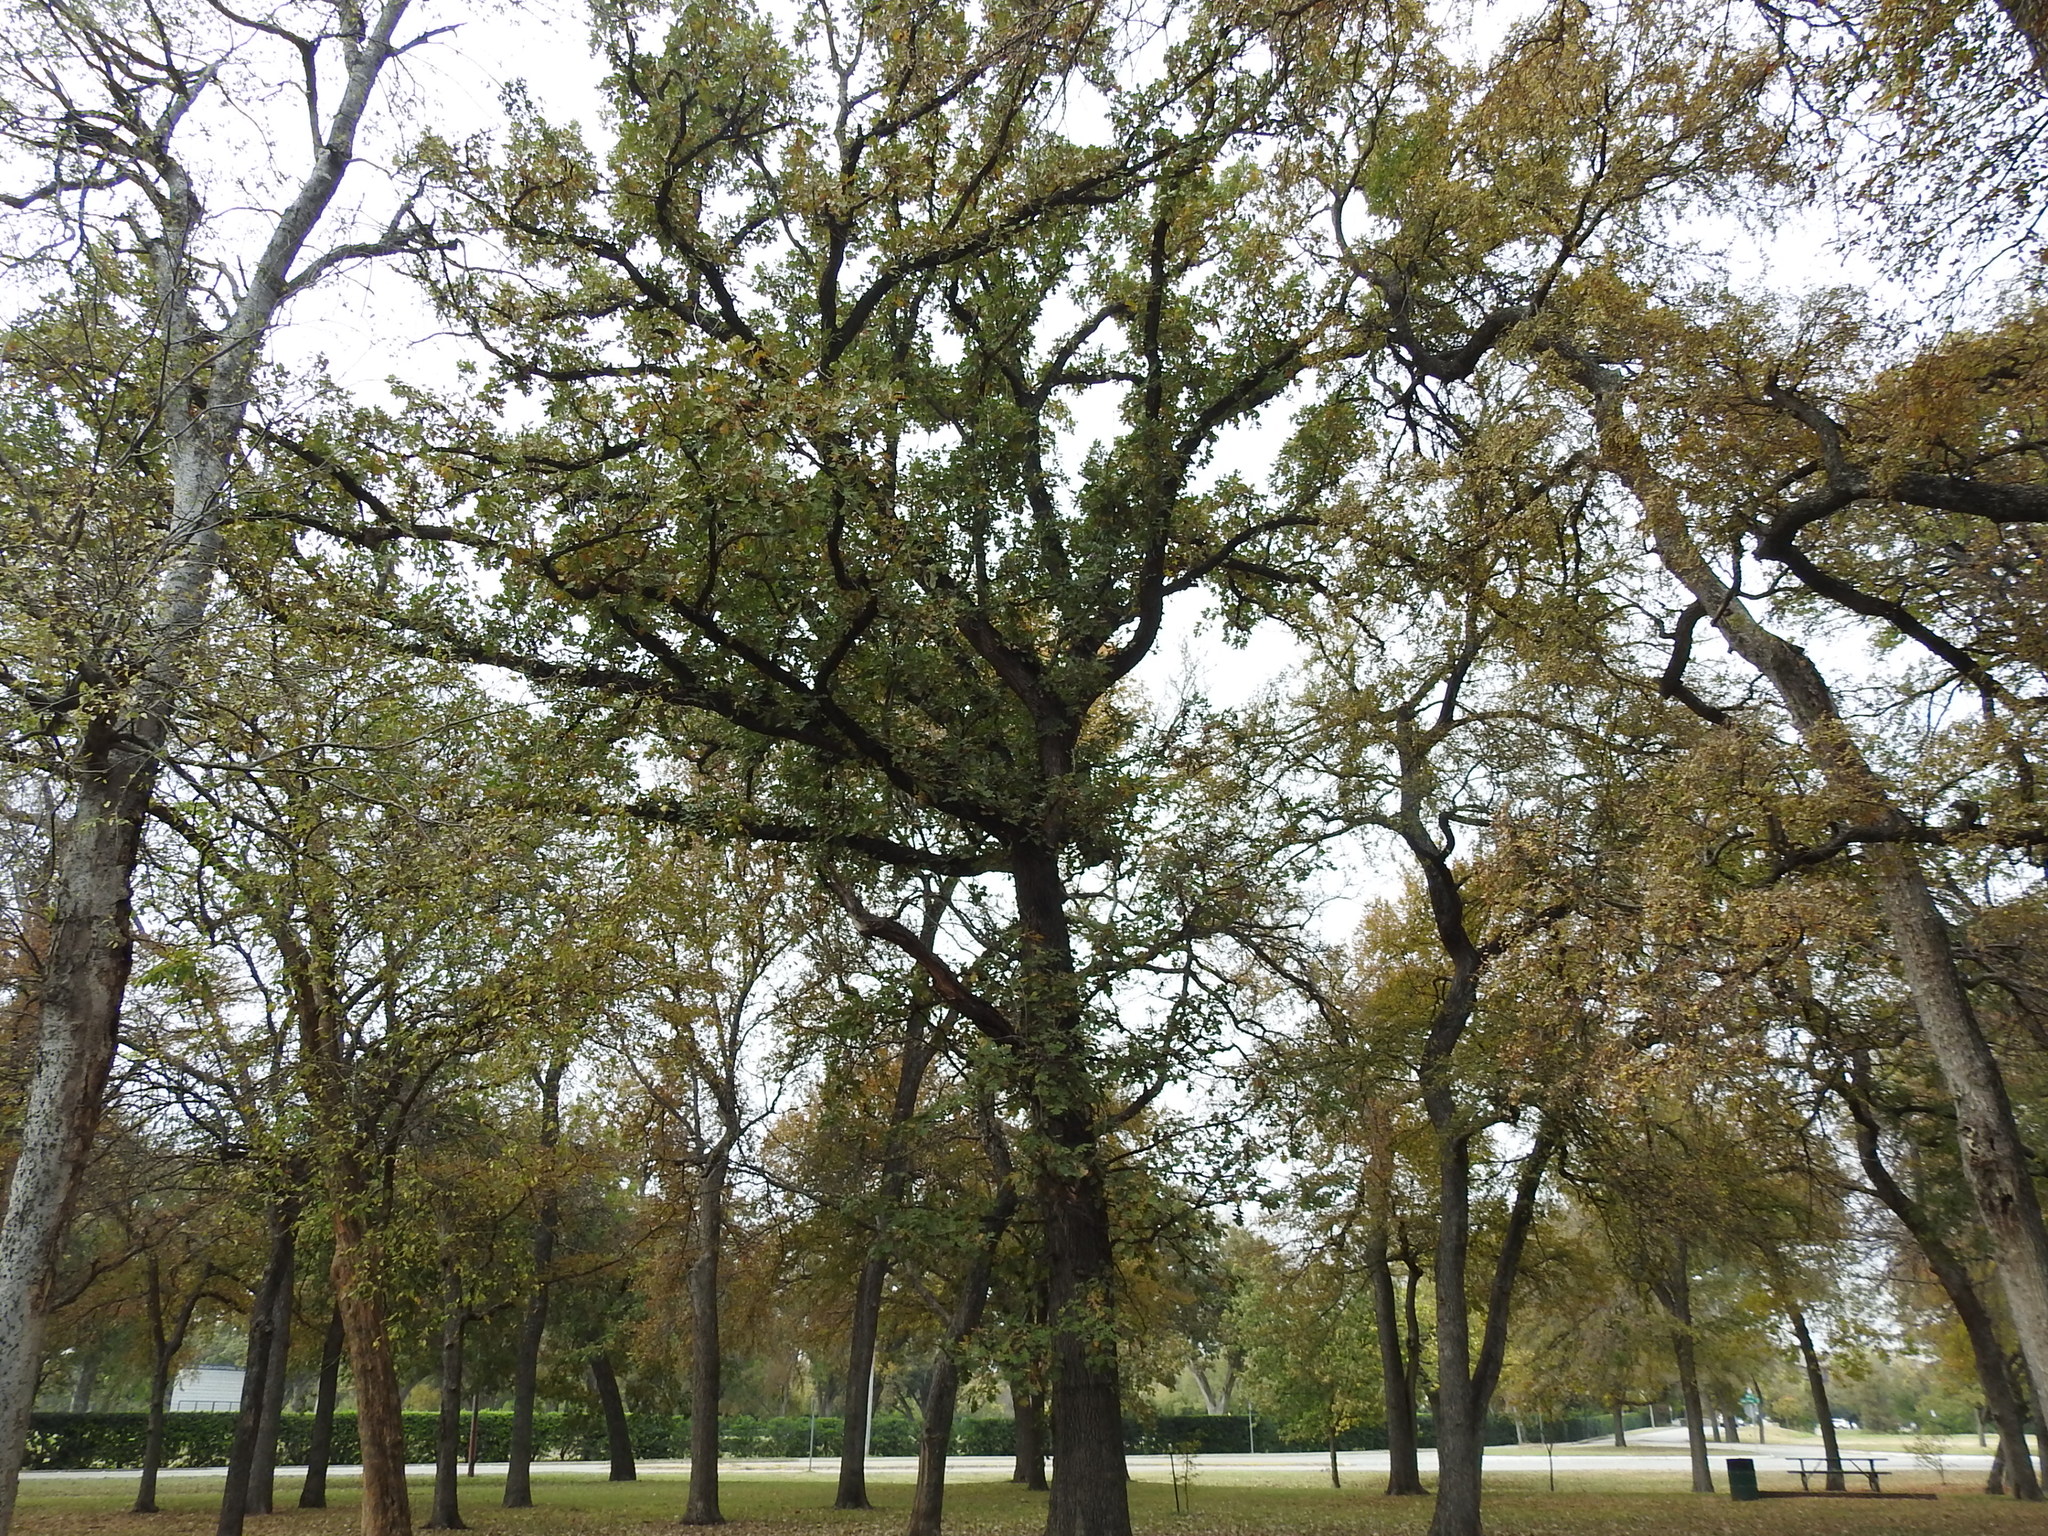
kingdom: Plantae
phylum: Tracheophyta
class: Magnoliopsida
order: Fagales
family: Fagaceae
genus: Quercus
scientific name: Quercus macrocarpa
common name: Bur oak
